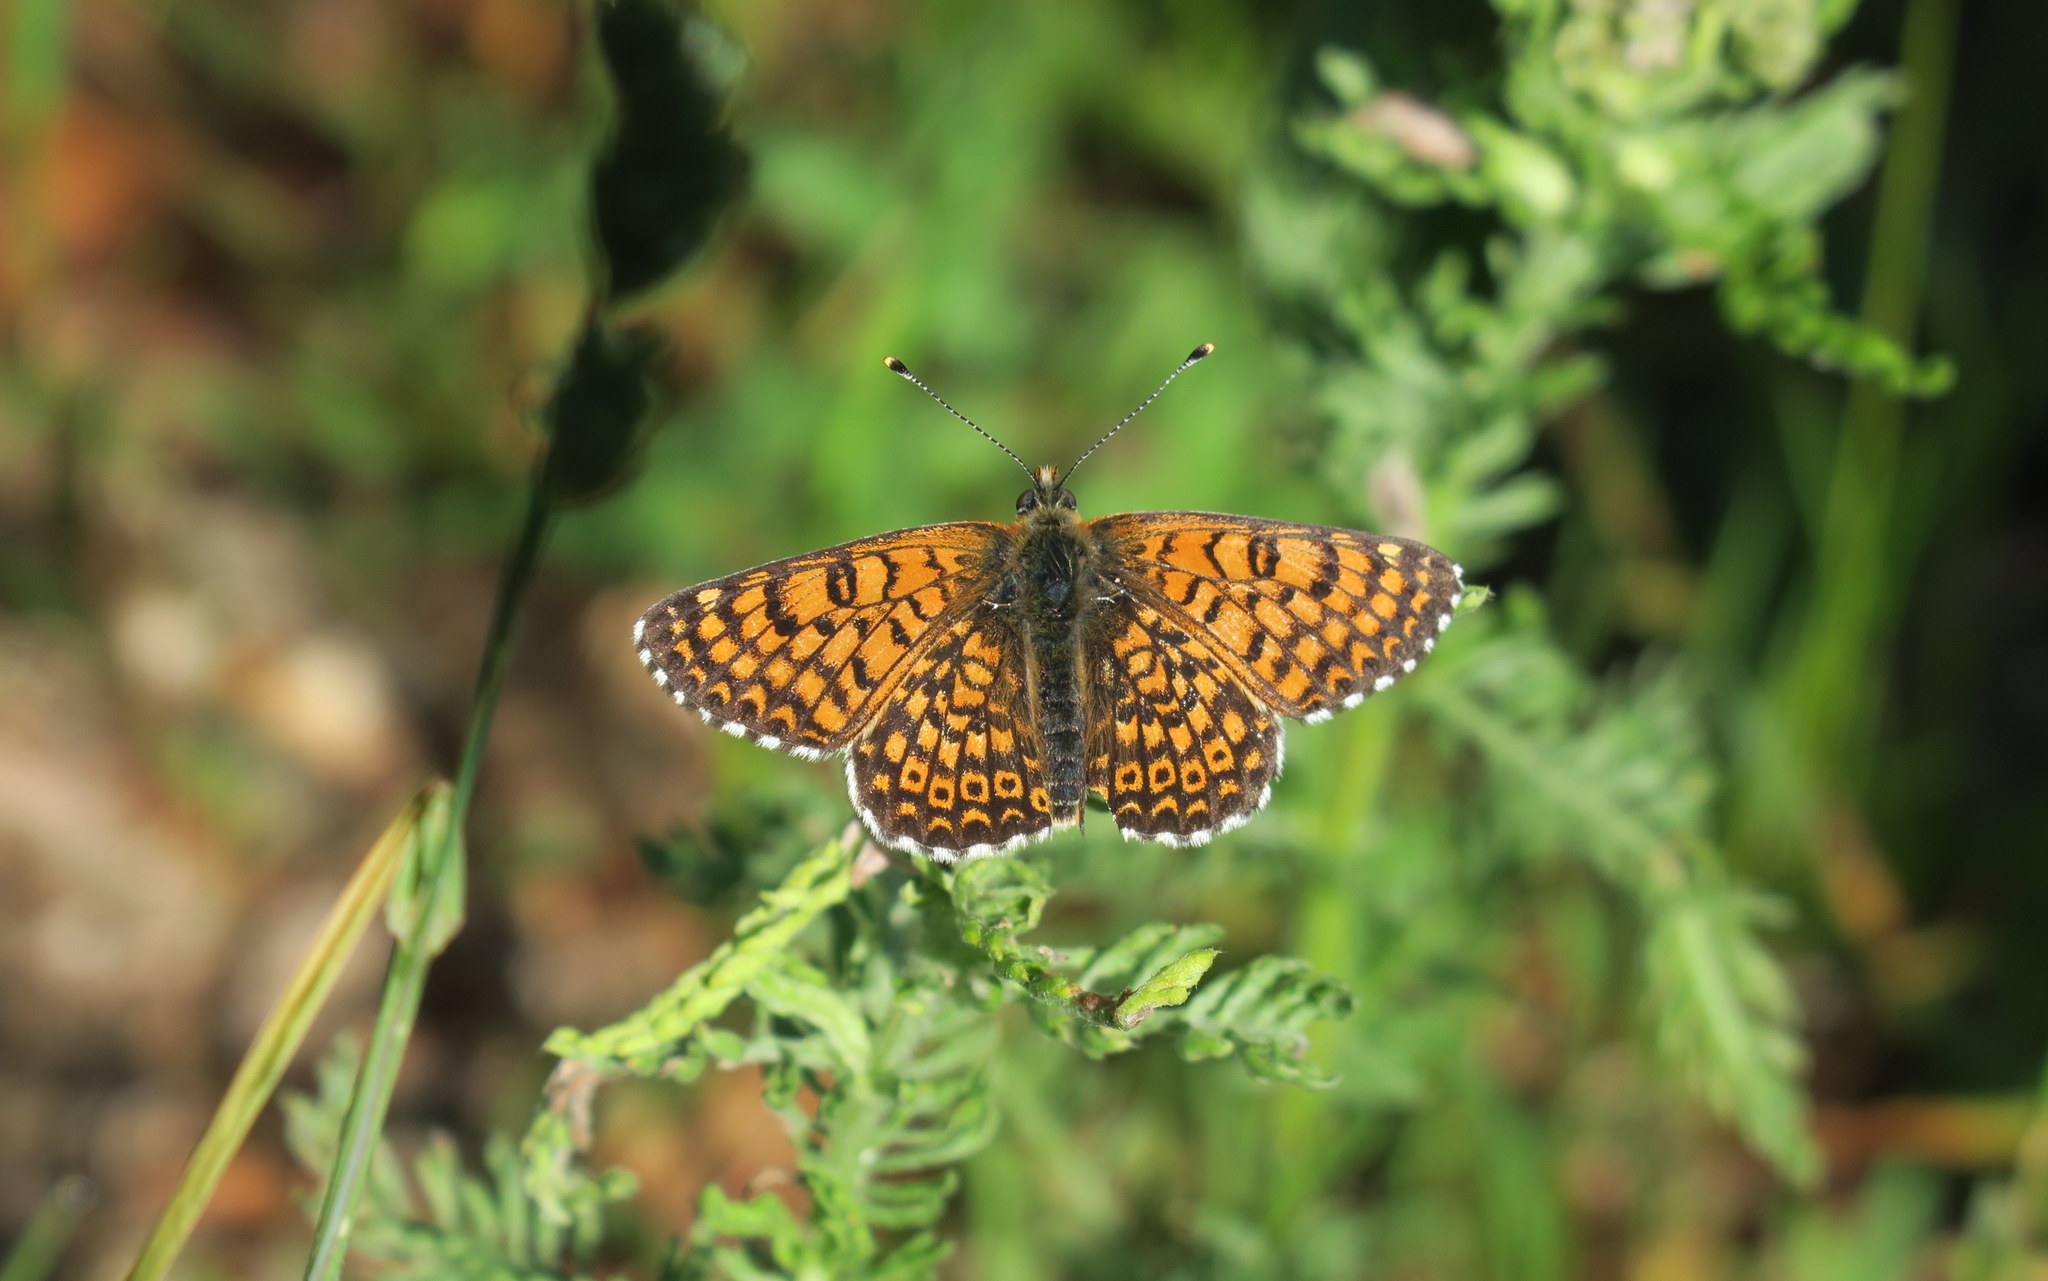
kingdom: Animalia
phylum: Arthropoda
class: Insecta
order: Lepidoptera
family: Nymphalidae
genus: Melitaea
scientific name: Melitaea cinxia
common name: Glanville fritillary
